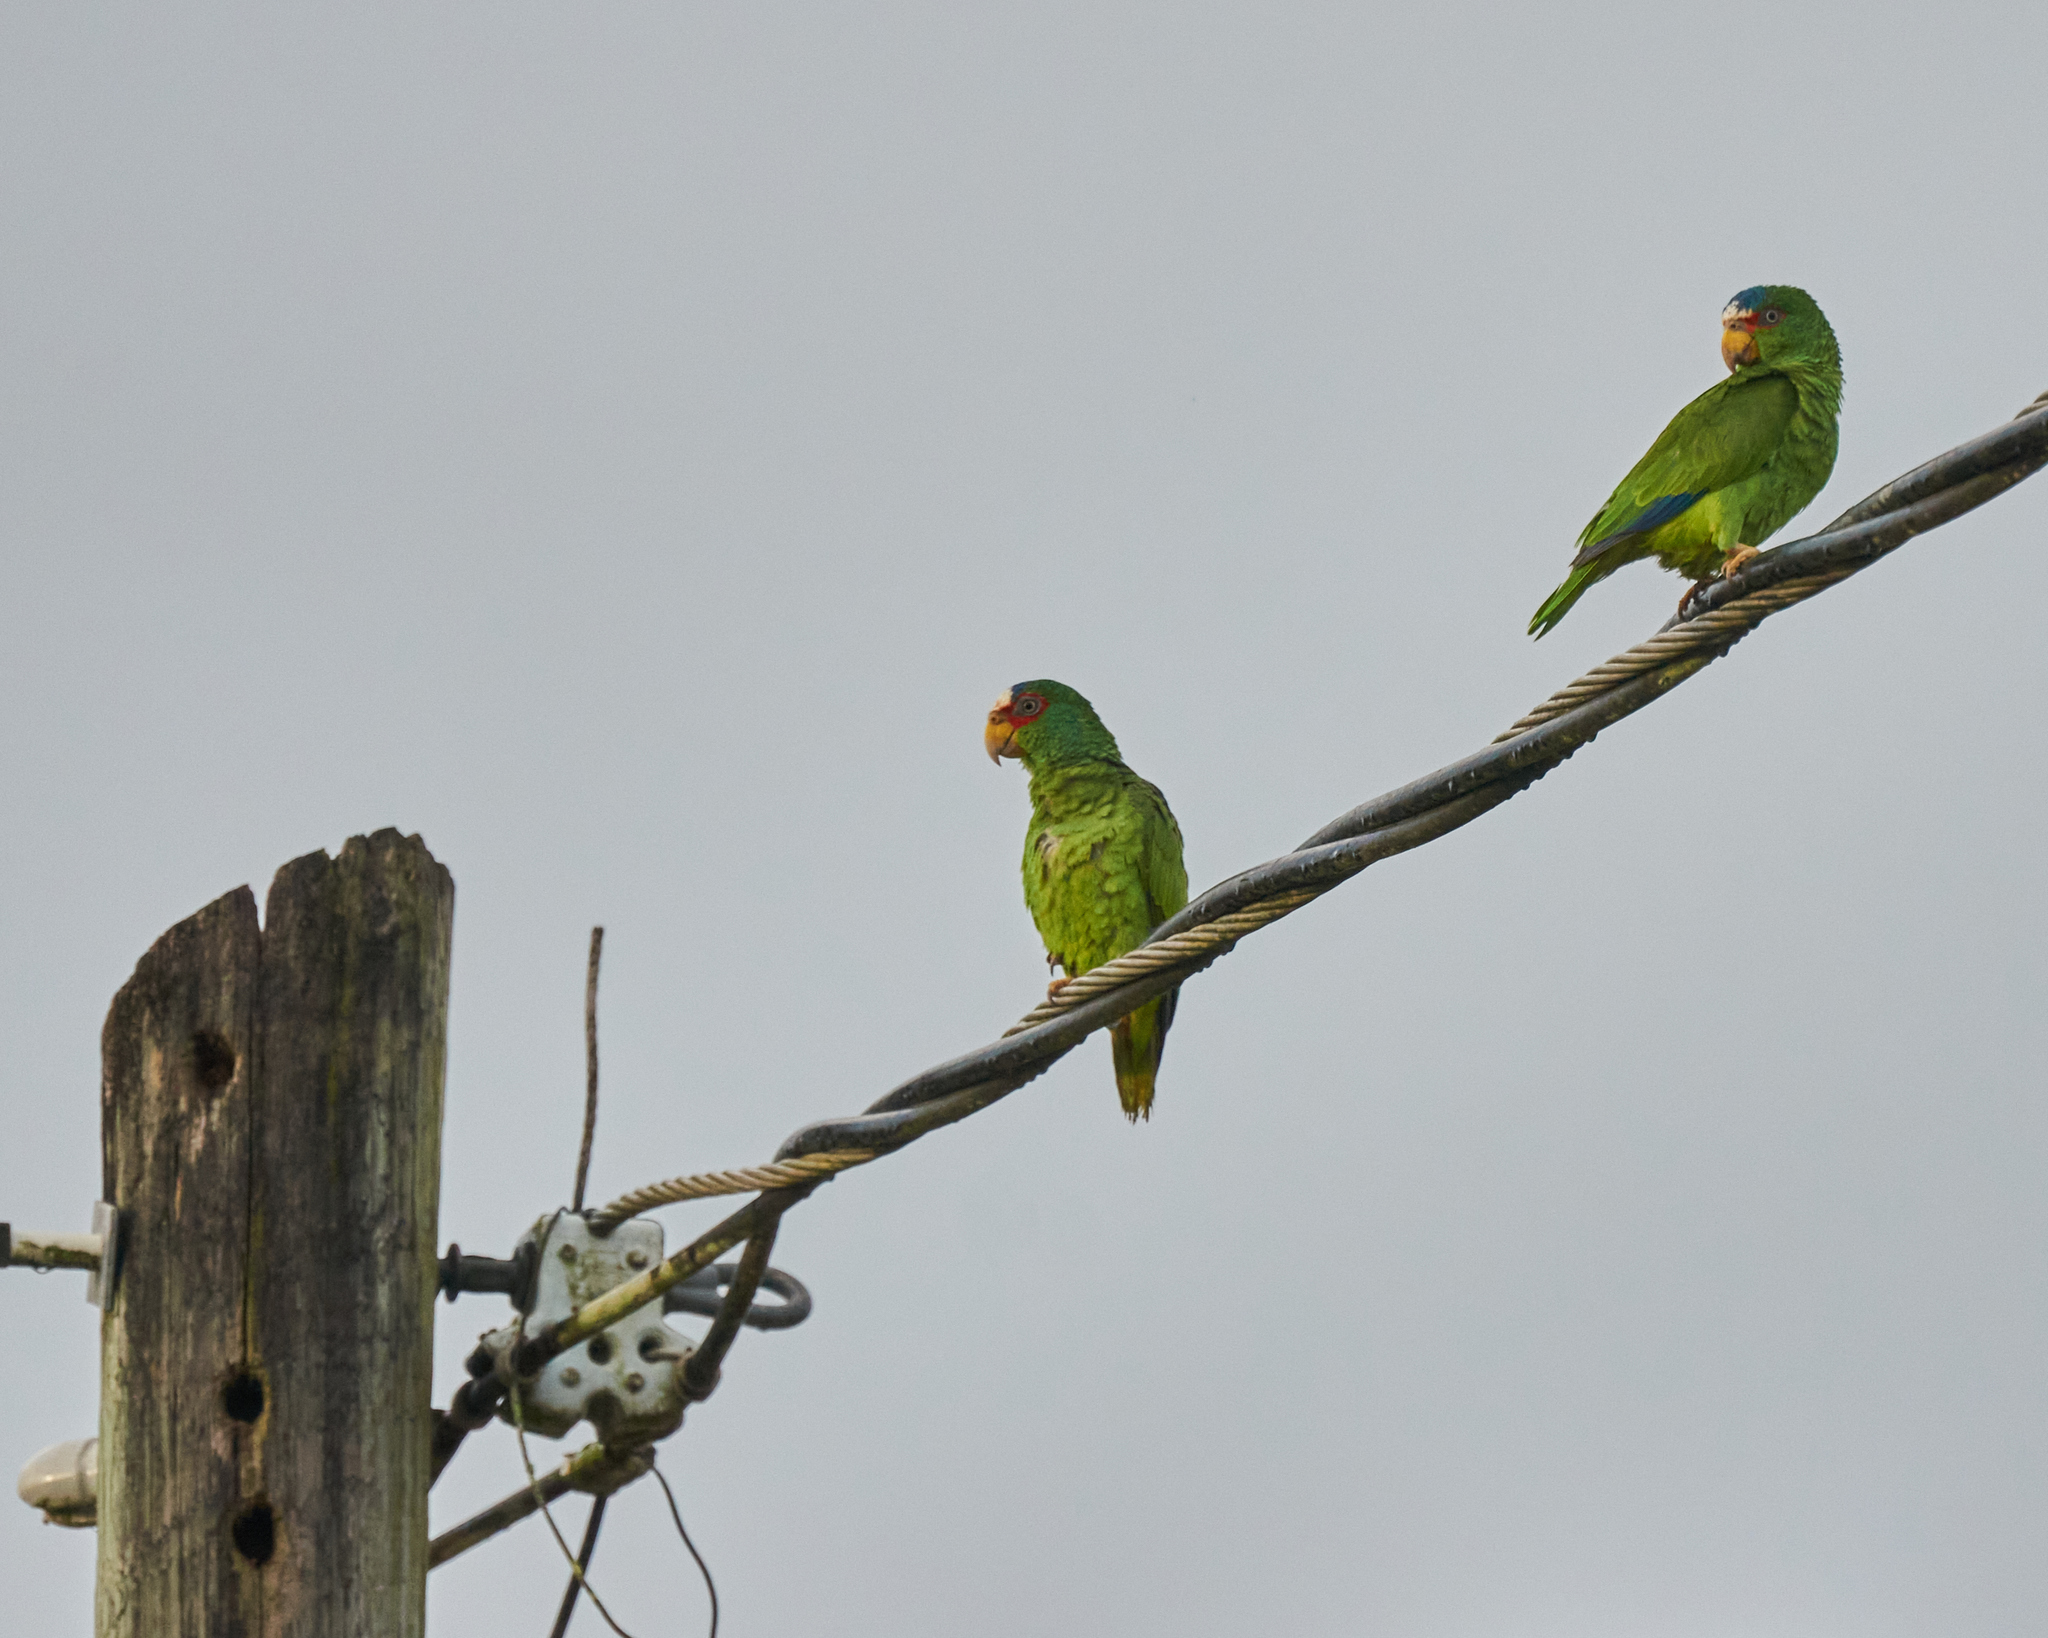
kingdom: Animalia
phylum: Chordata
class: Aves
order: Psittaciformes
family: Psittacidae
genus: Amazona
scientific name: Amazona albifrons
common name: White-fronted amazon
